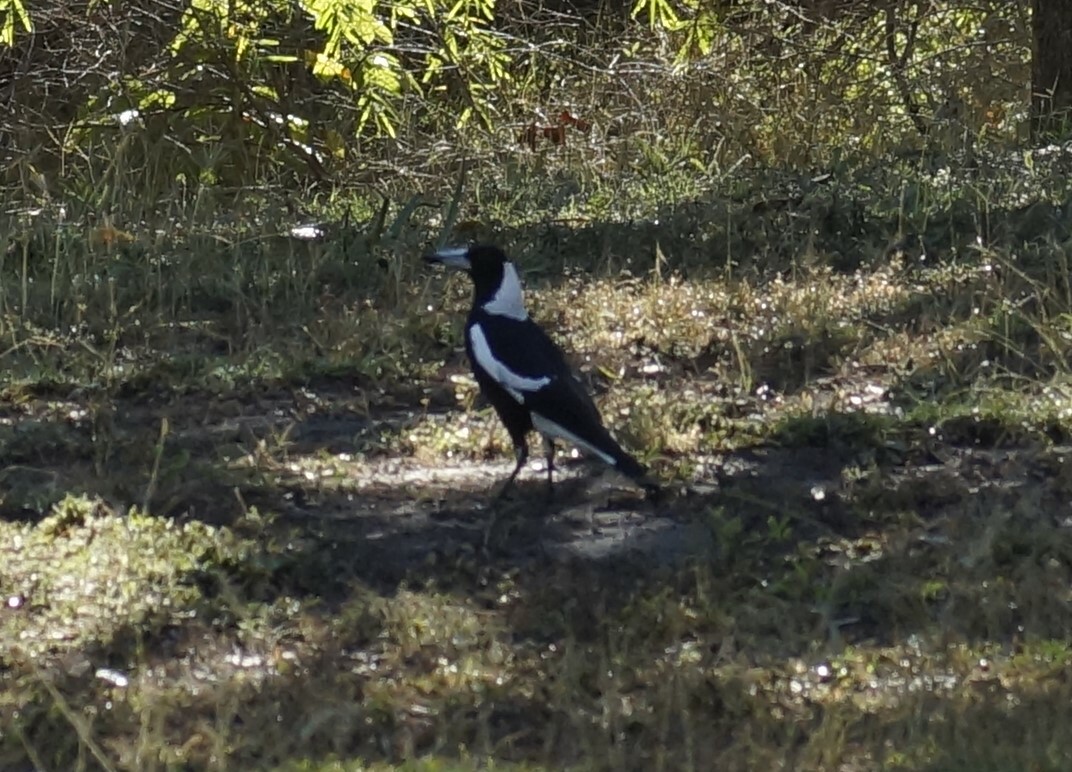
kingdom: Animalia
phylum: Chordata
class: Aves
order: Passeriformes
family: Cracticidae
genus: Gymnorhina
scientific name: Gymnorhina tibicen
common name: Australian magpie
